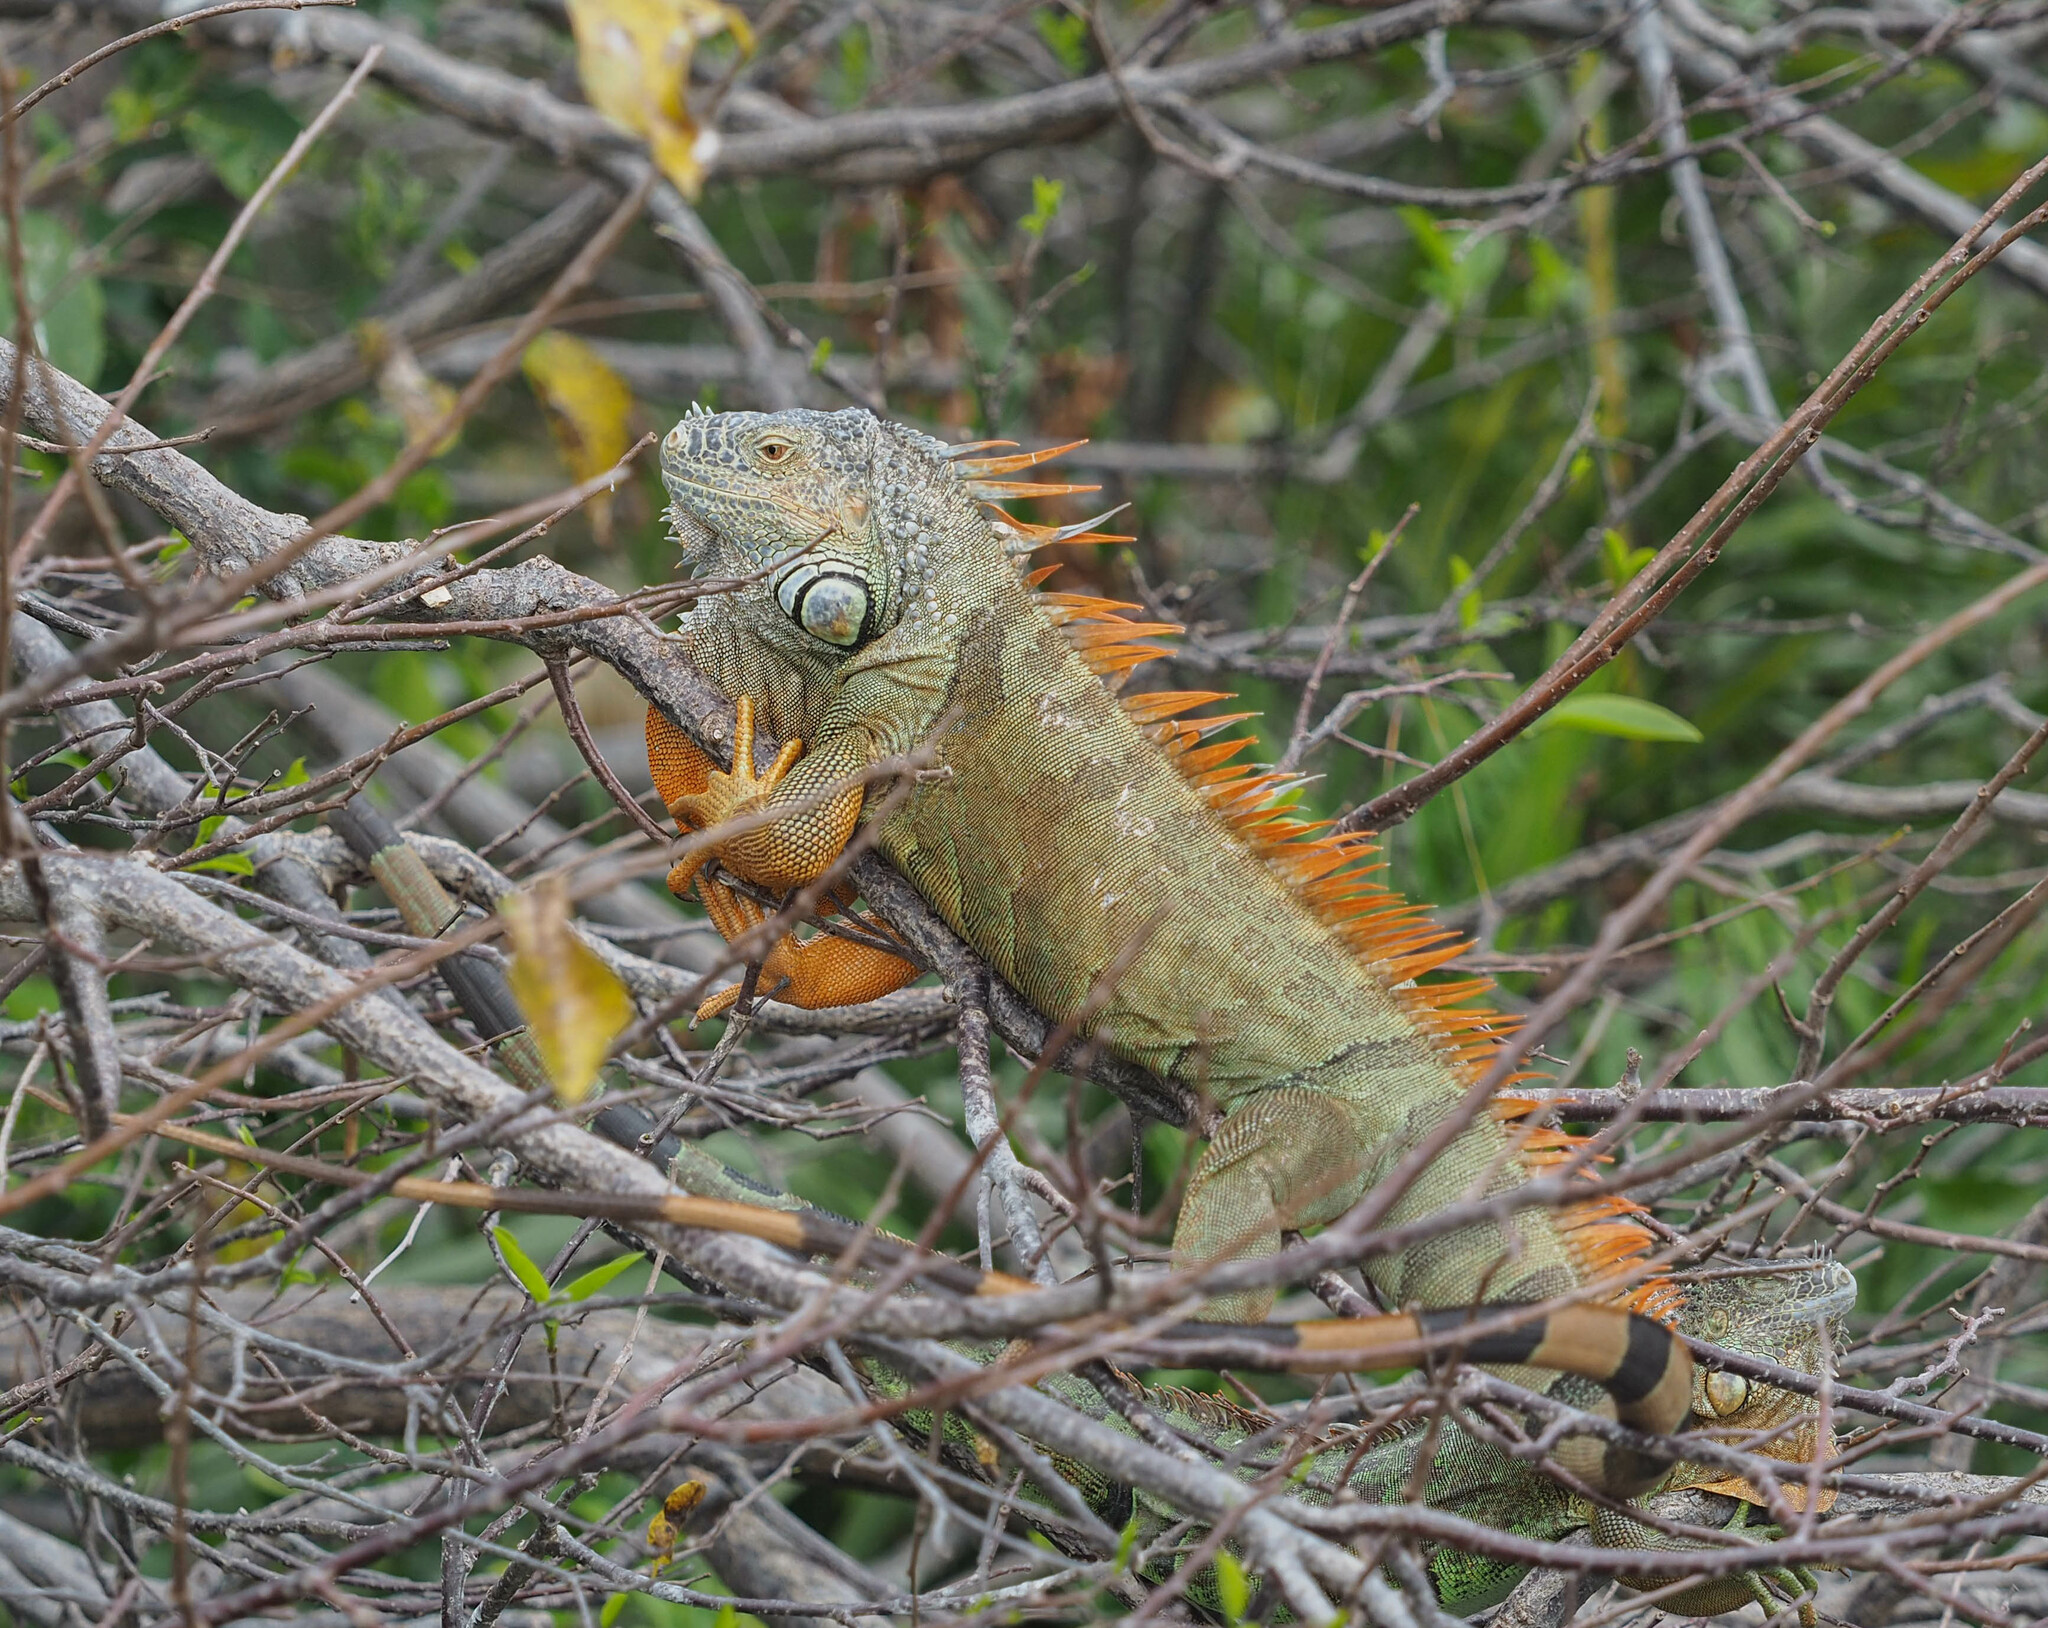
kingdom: Animalia
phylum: Chordata
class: Squamata
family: Iguanidae
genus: Iguana
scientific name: Iguana iguana
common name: Green iguana
